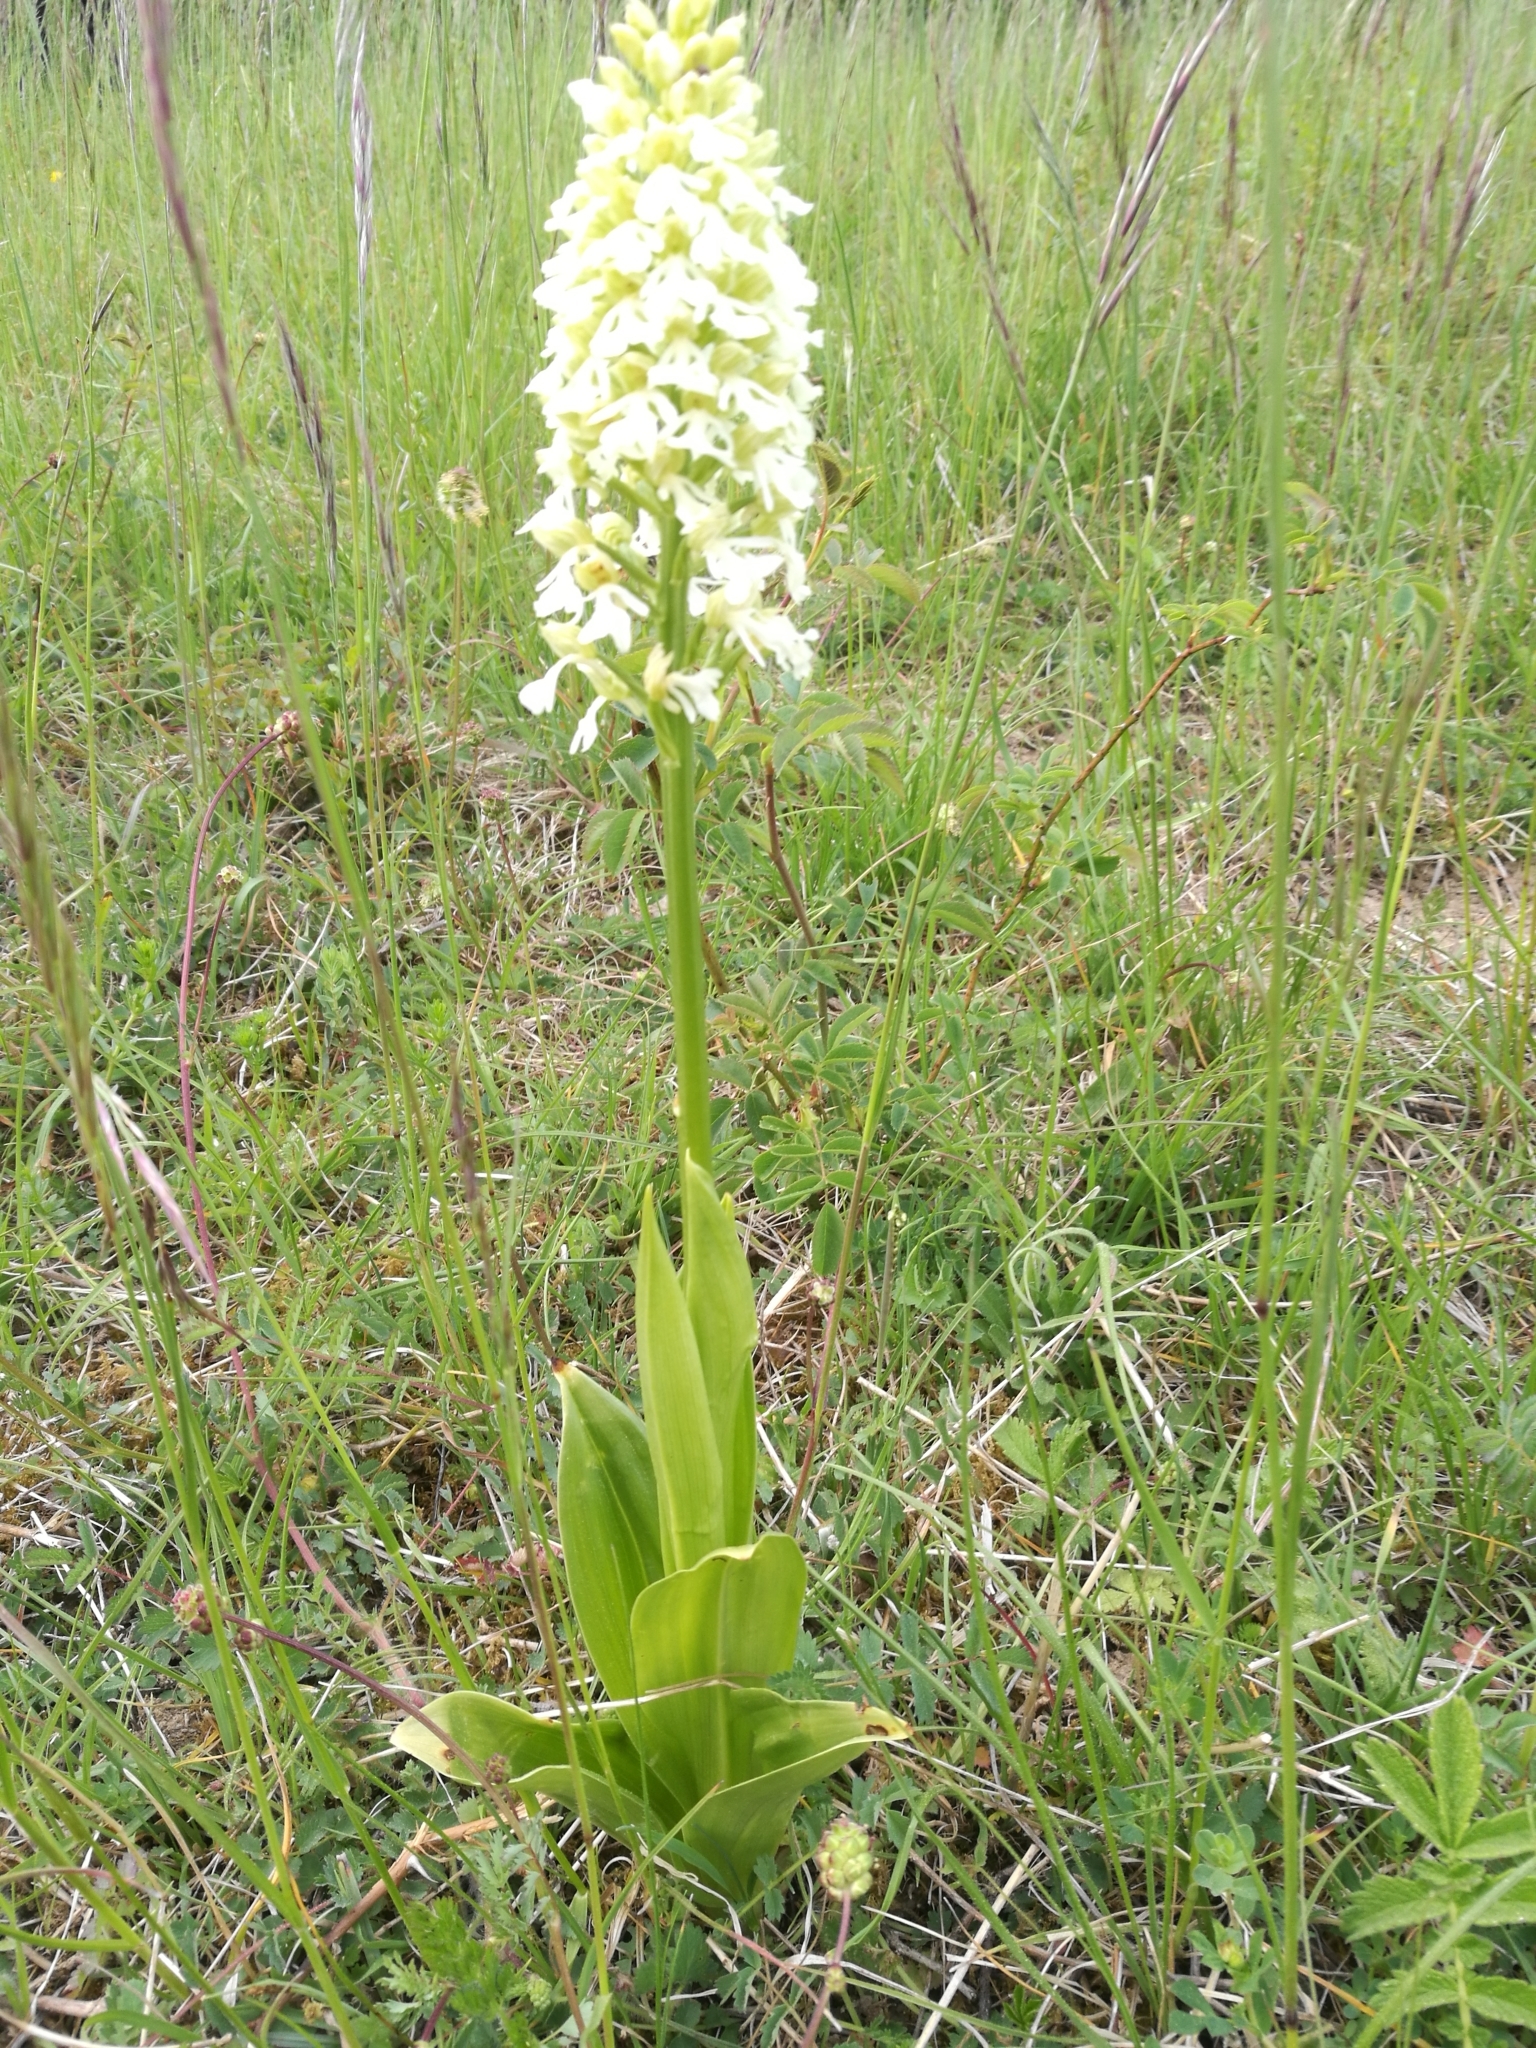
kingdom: Plantae
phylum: Tracheophyta
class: Liliopsida
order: Asparagales
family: Orchidaceae
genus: Orchis
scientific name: Orchis purpurea
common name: Lady orchid
